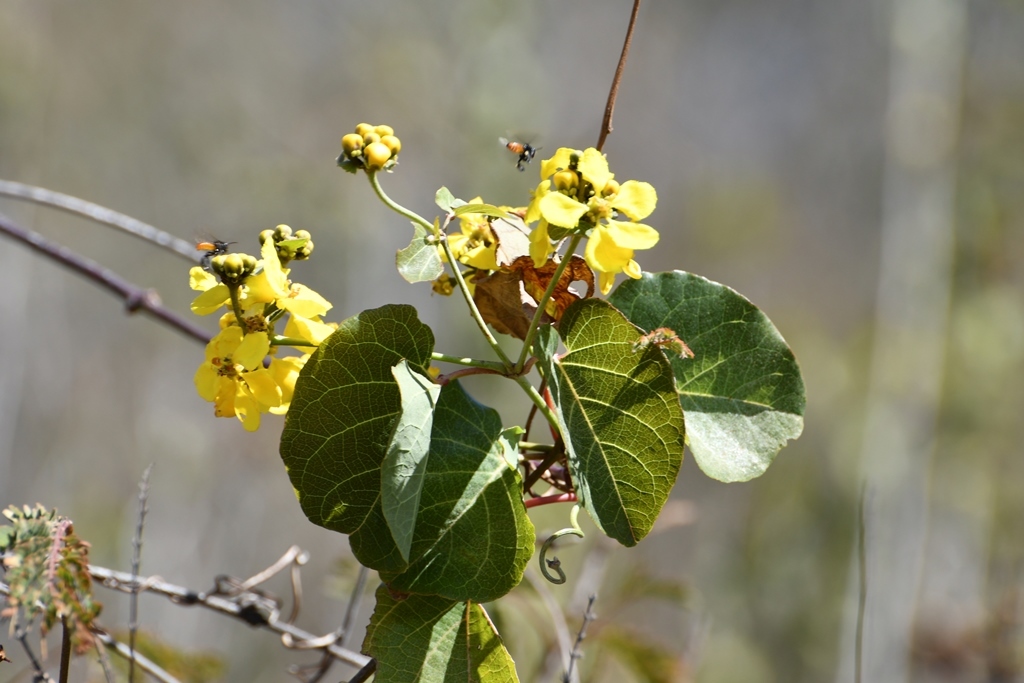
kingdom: Plantae
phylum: Tracheophyta
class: Magnoliopsida
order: Malpighiales
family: Malpighiaceae
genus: Stigmaphyllon
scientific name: Stigmaphyllon selerianum
